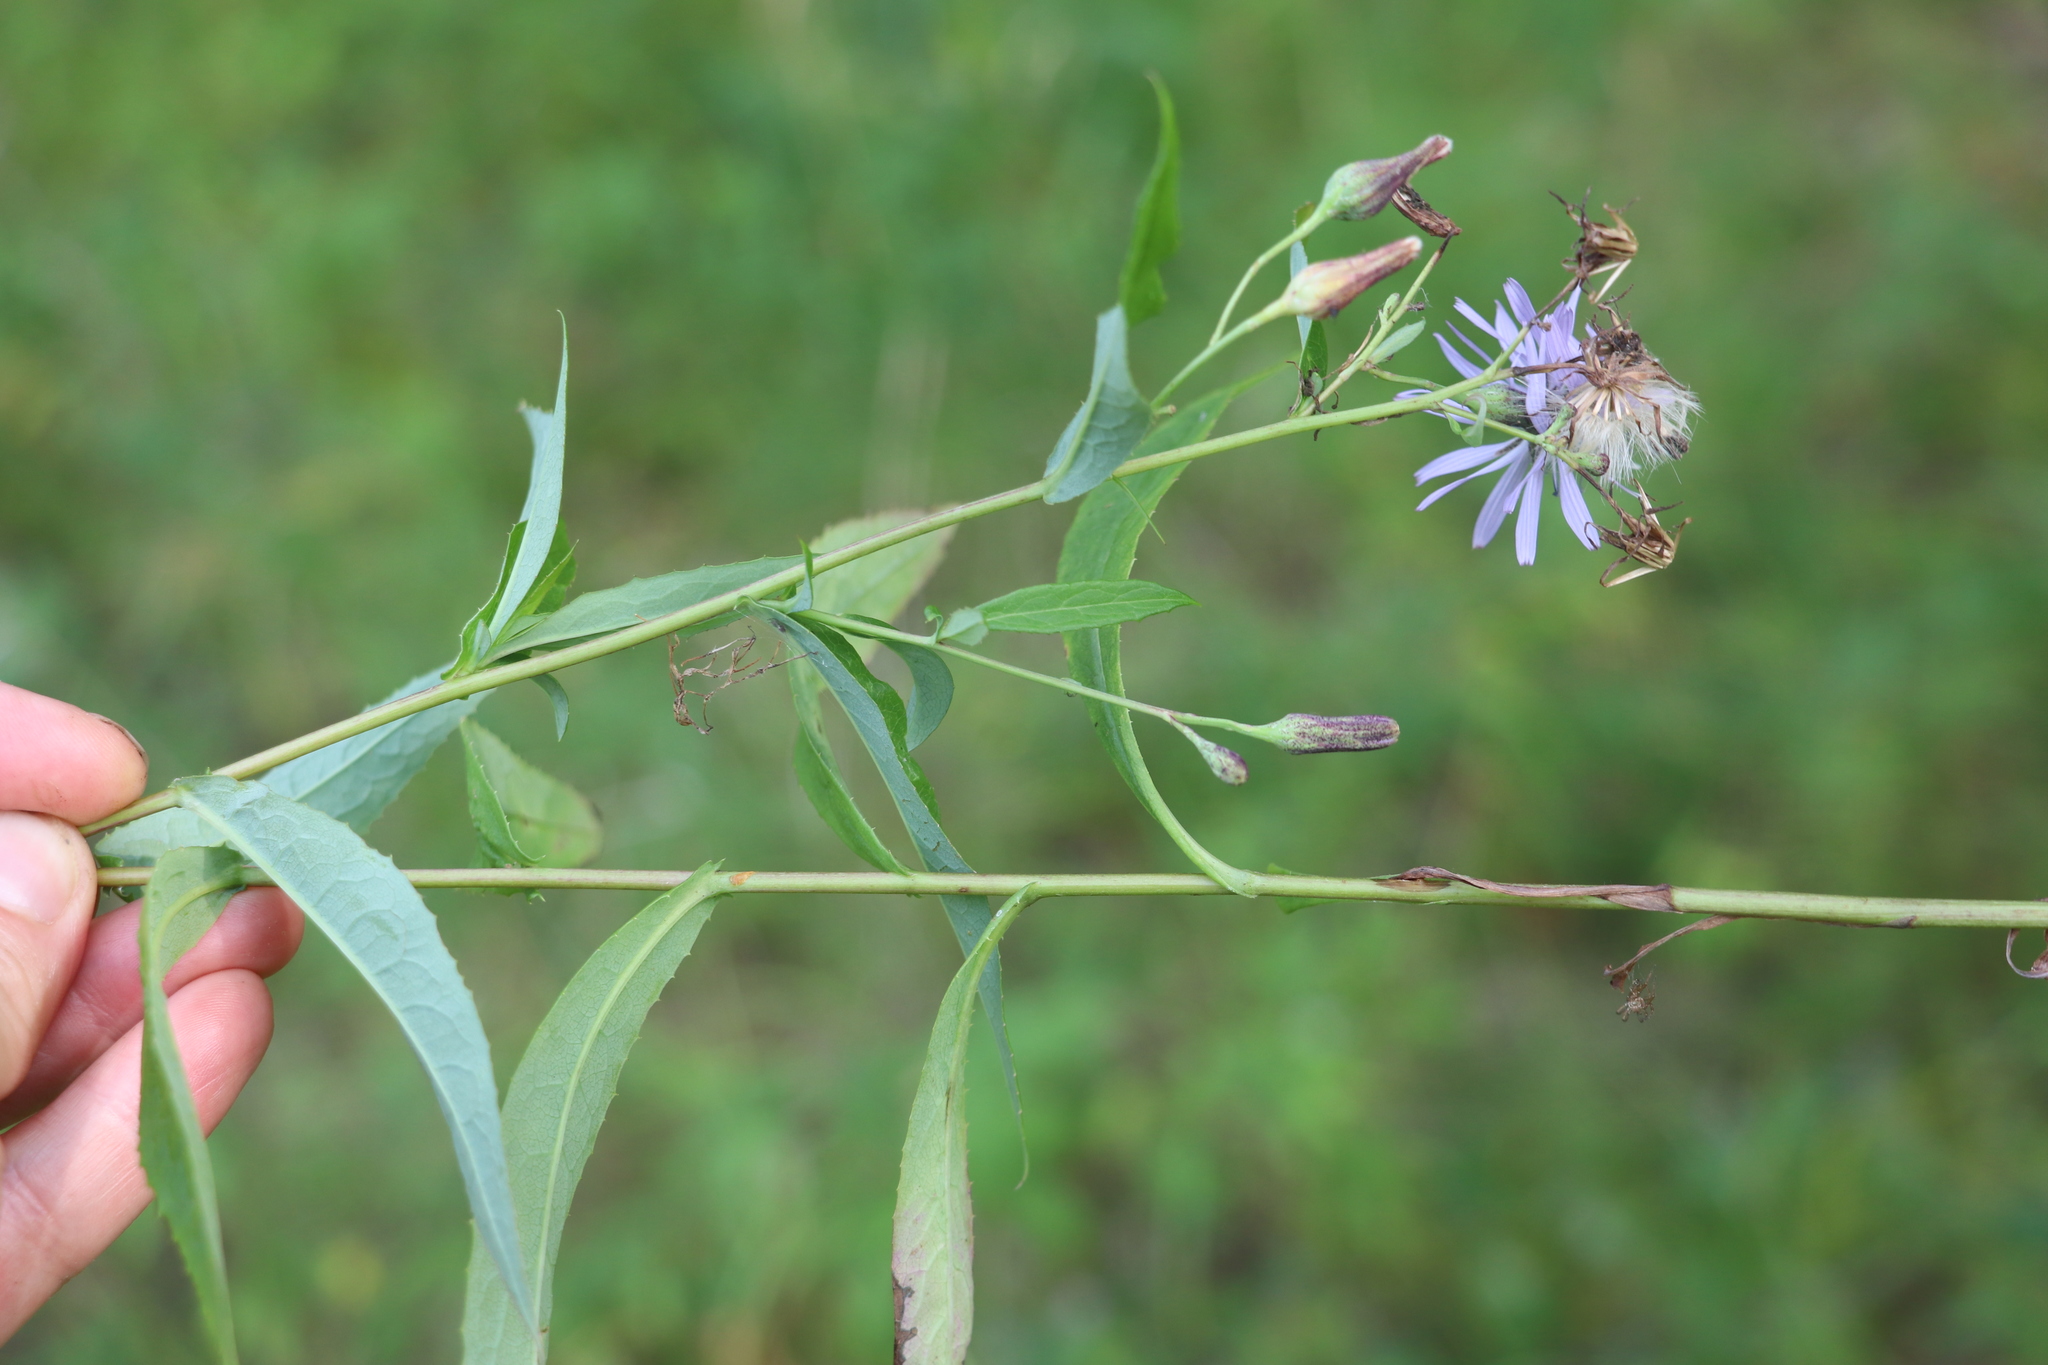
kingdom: Plantae
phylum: Tracheophyta
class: Magnoliopsida
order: Asterales
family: Asteraceae
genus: Lactuca
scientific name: Lactuca sibirica
